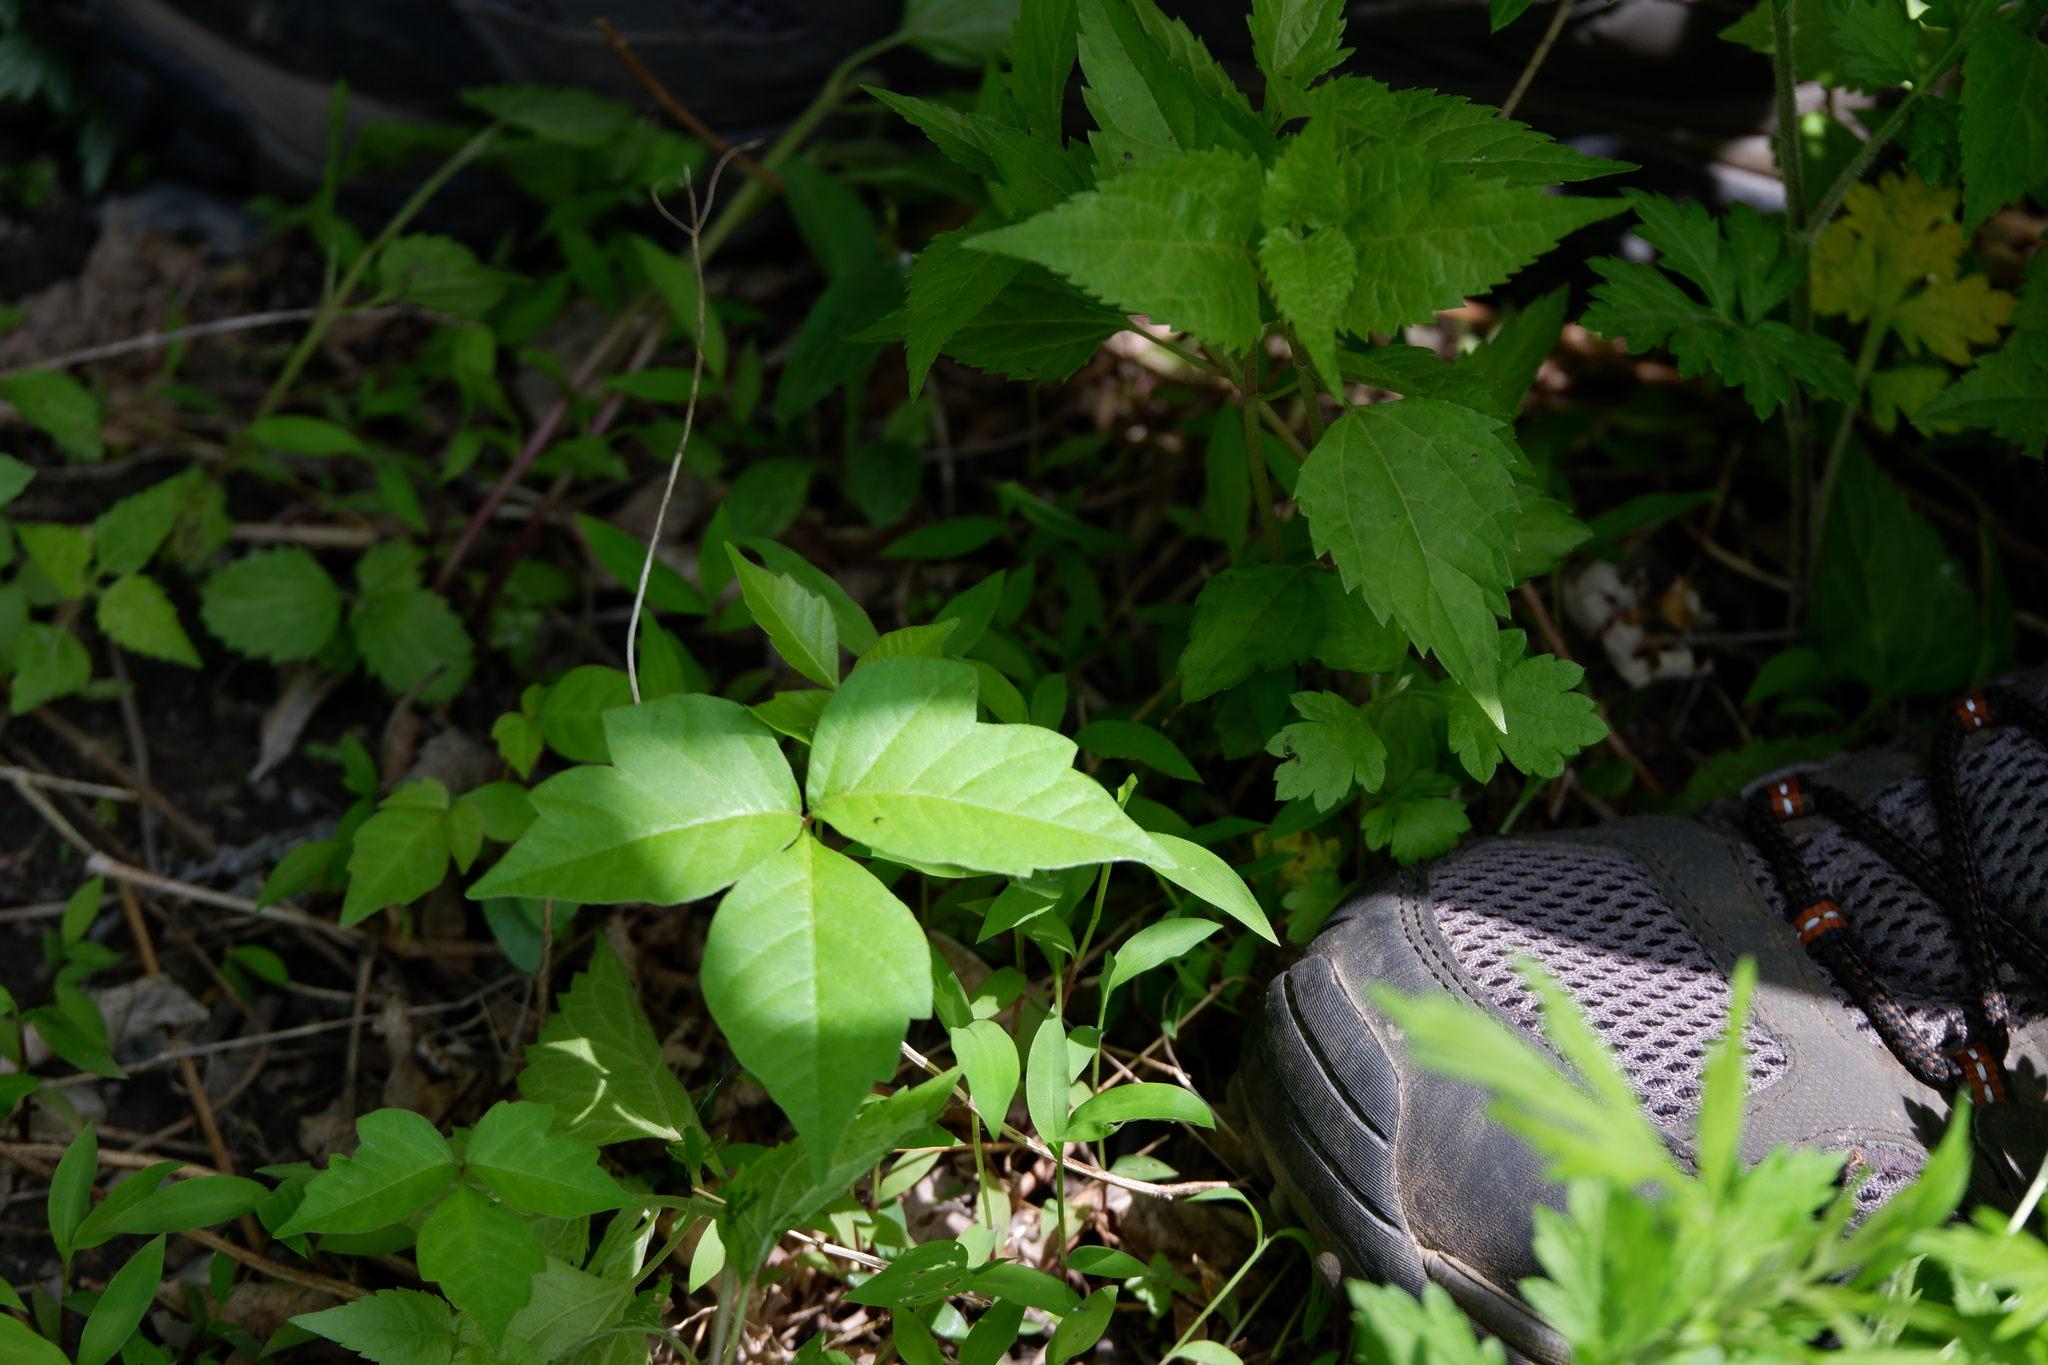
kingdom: Plantae
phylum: Tracheophyta
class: Magnoliopsida
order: Sapindales
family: Anacardiaceae
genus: Toxicodendron
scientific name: Toxicodendron radicans
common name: Poison ivy
